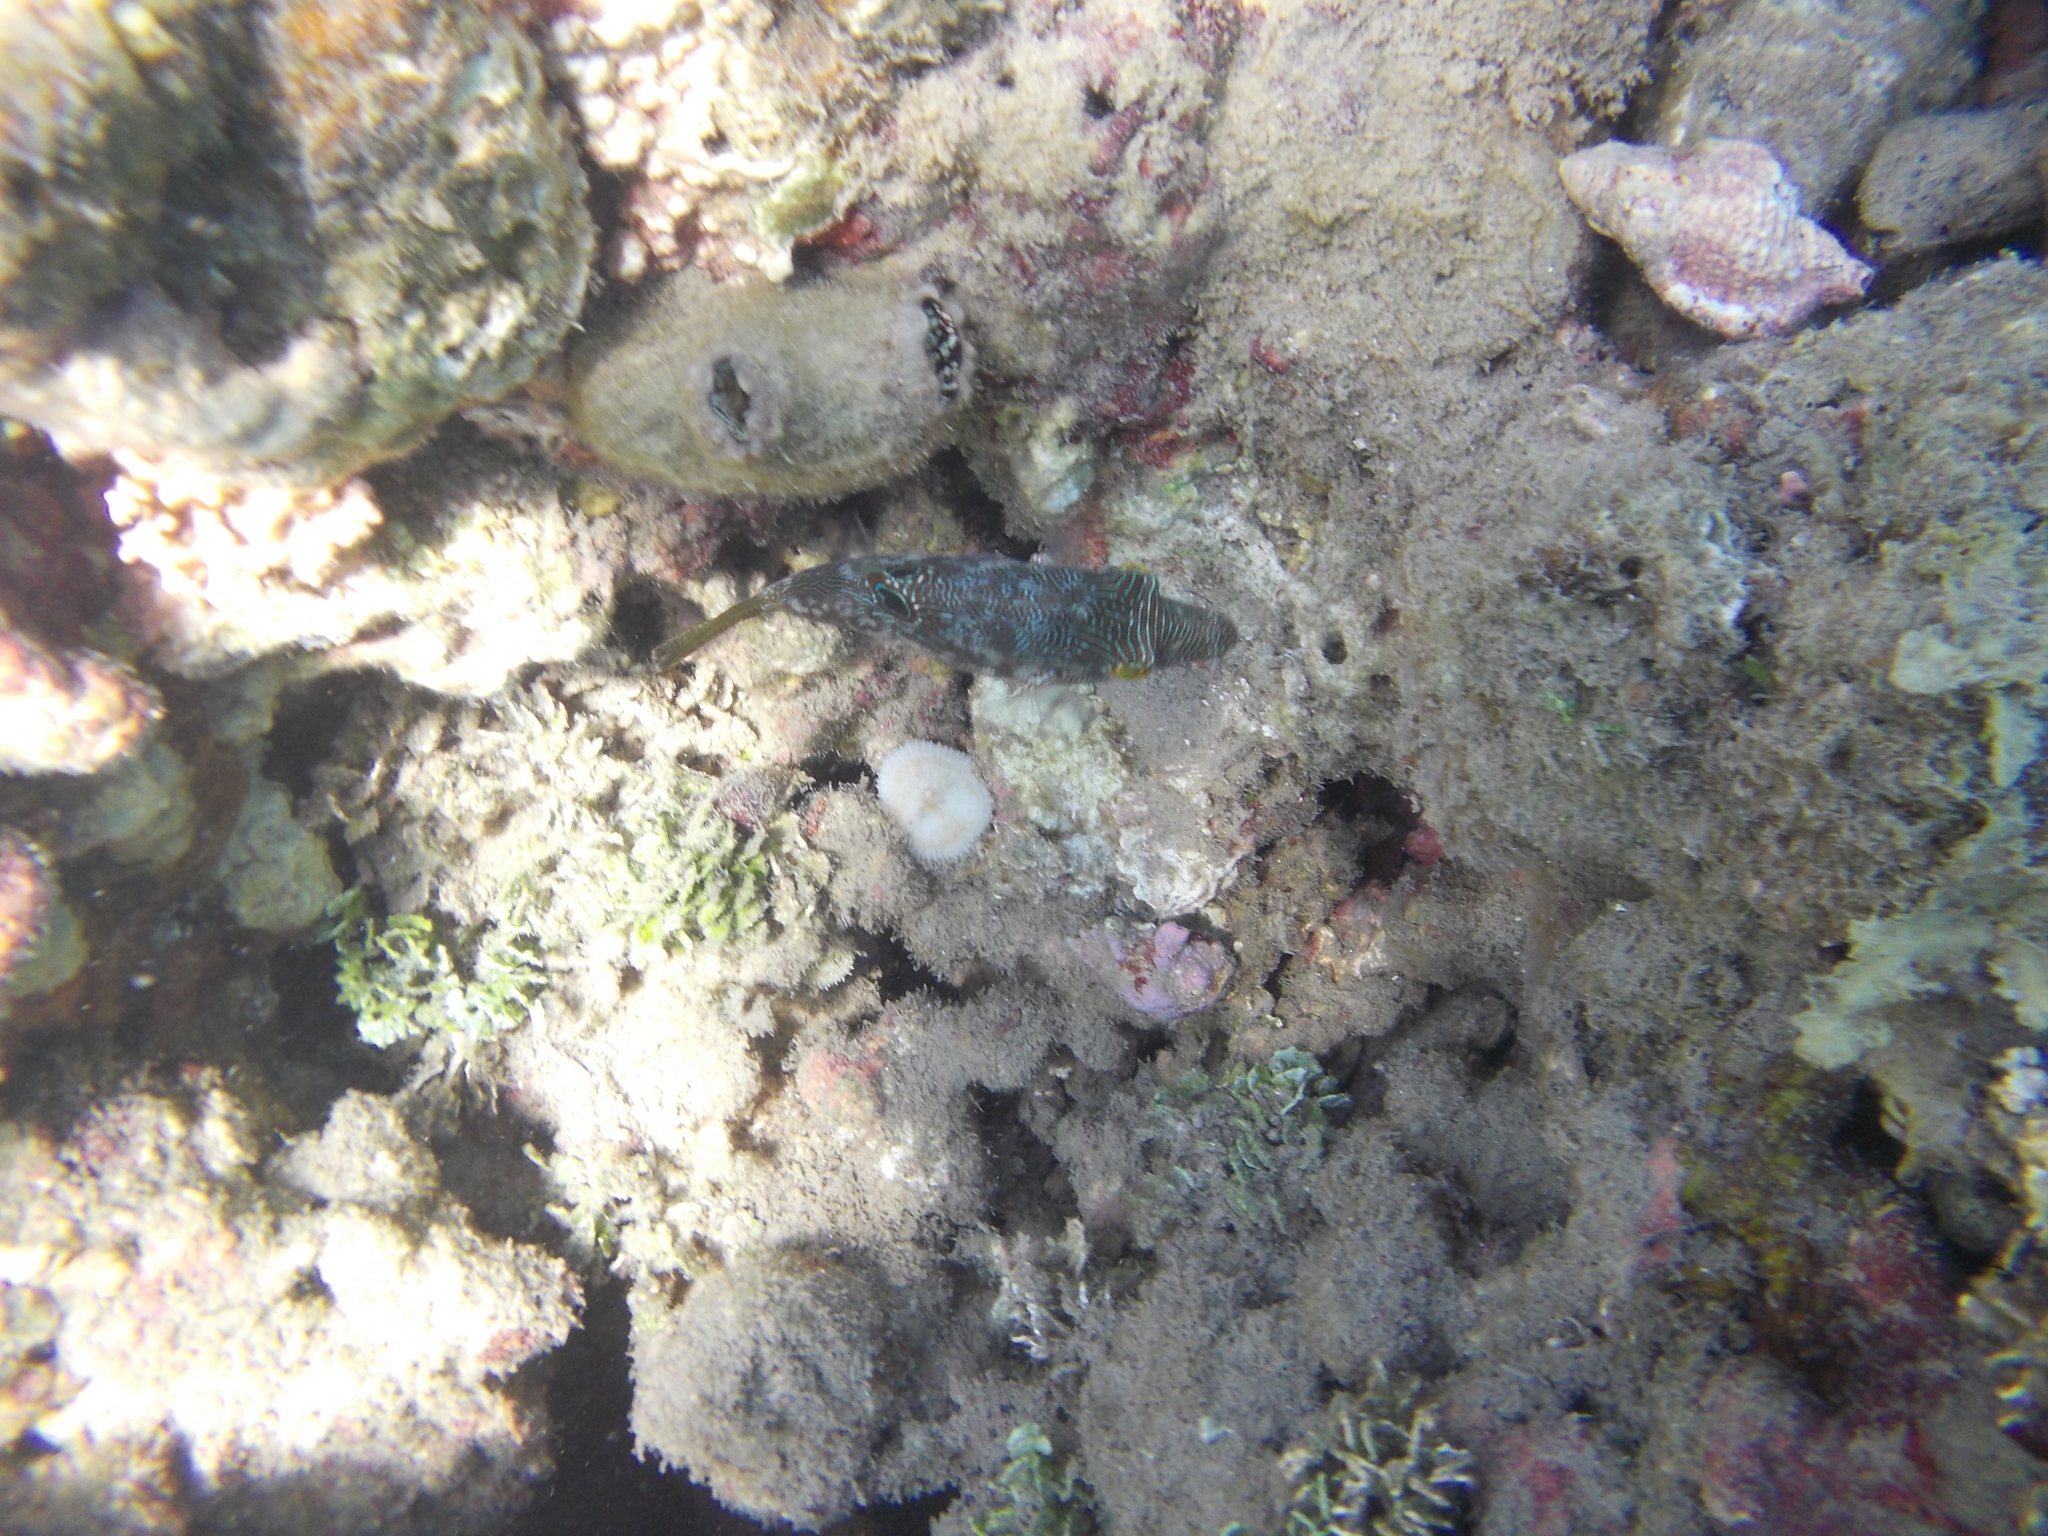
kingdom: Animalia
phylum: Chordata
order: Tetraodontiformes
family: Tetraodontidae
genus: Canthigaster
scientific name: Canthigaster compressa
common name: Compressed toby
